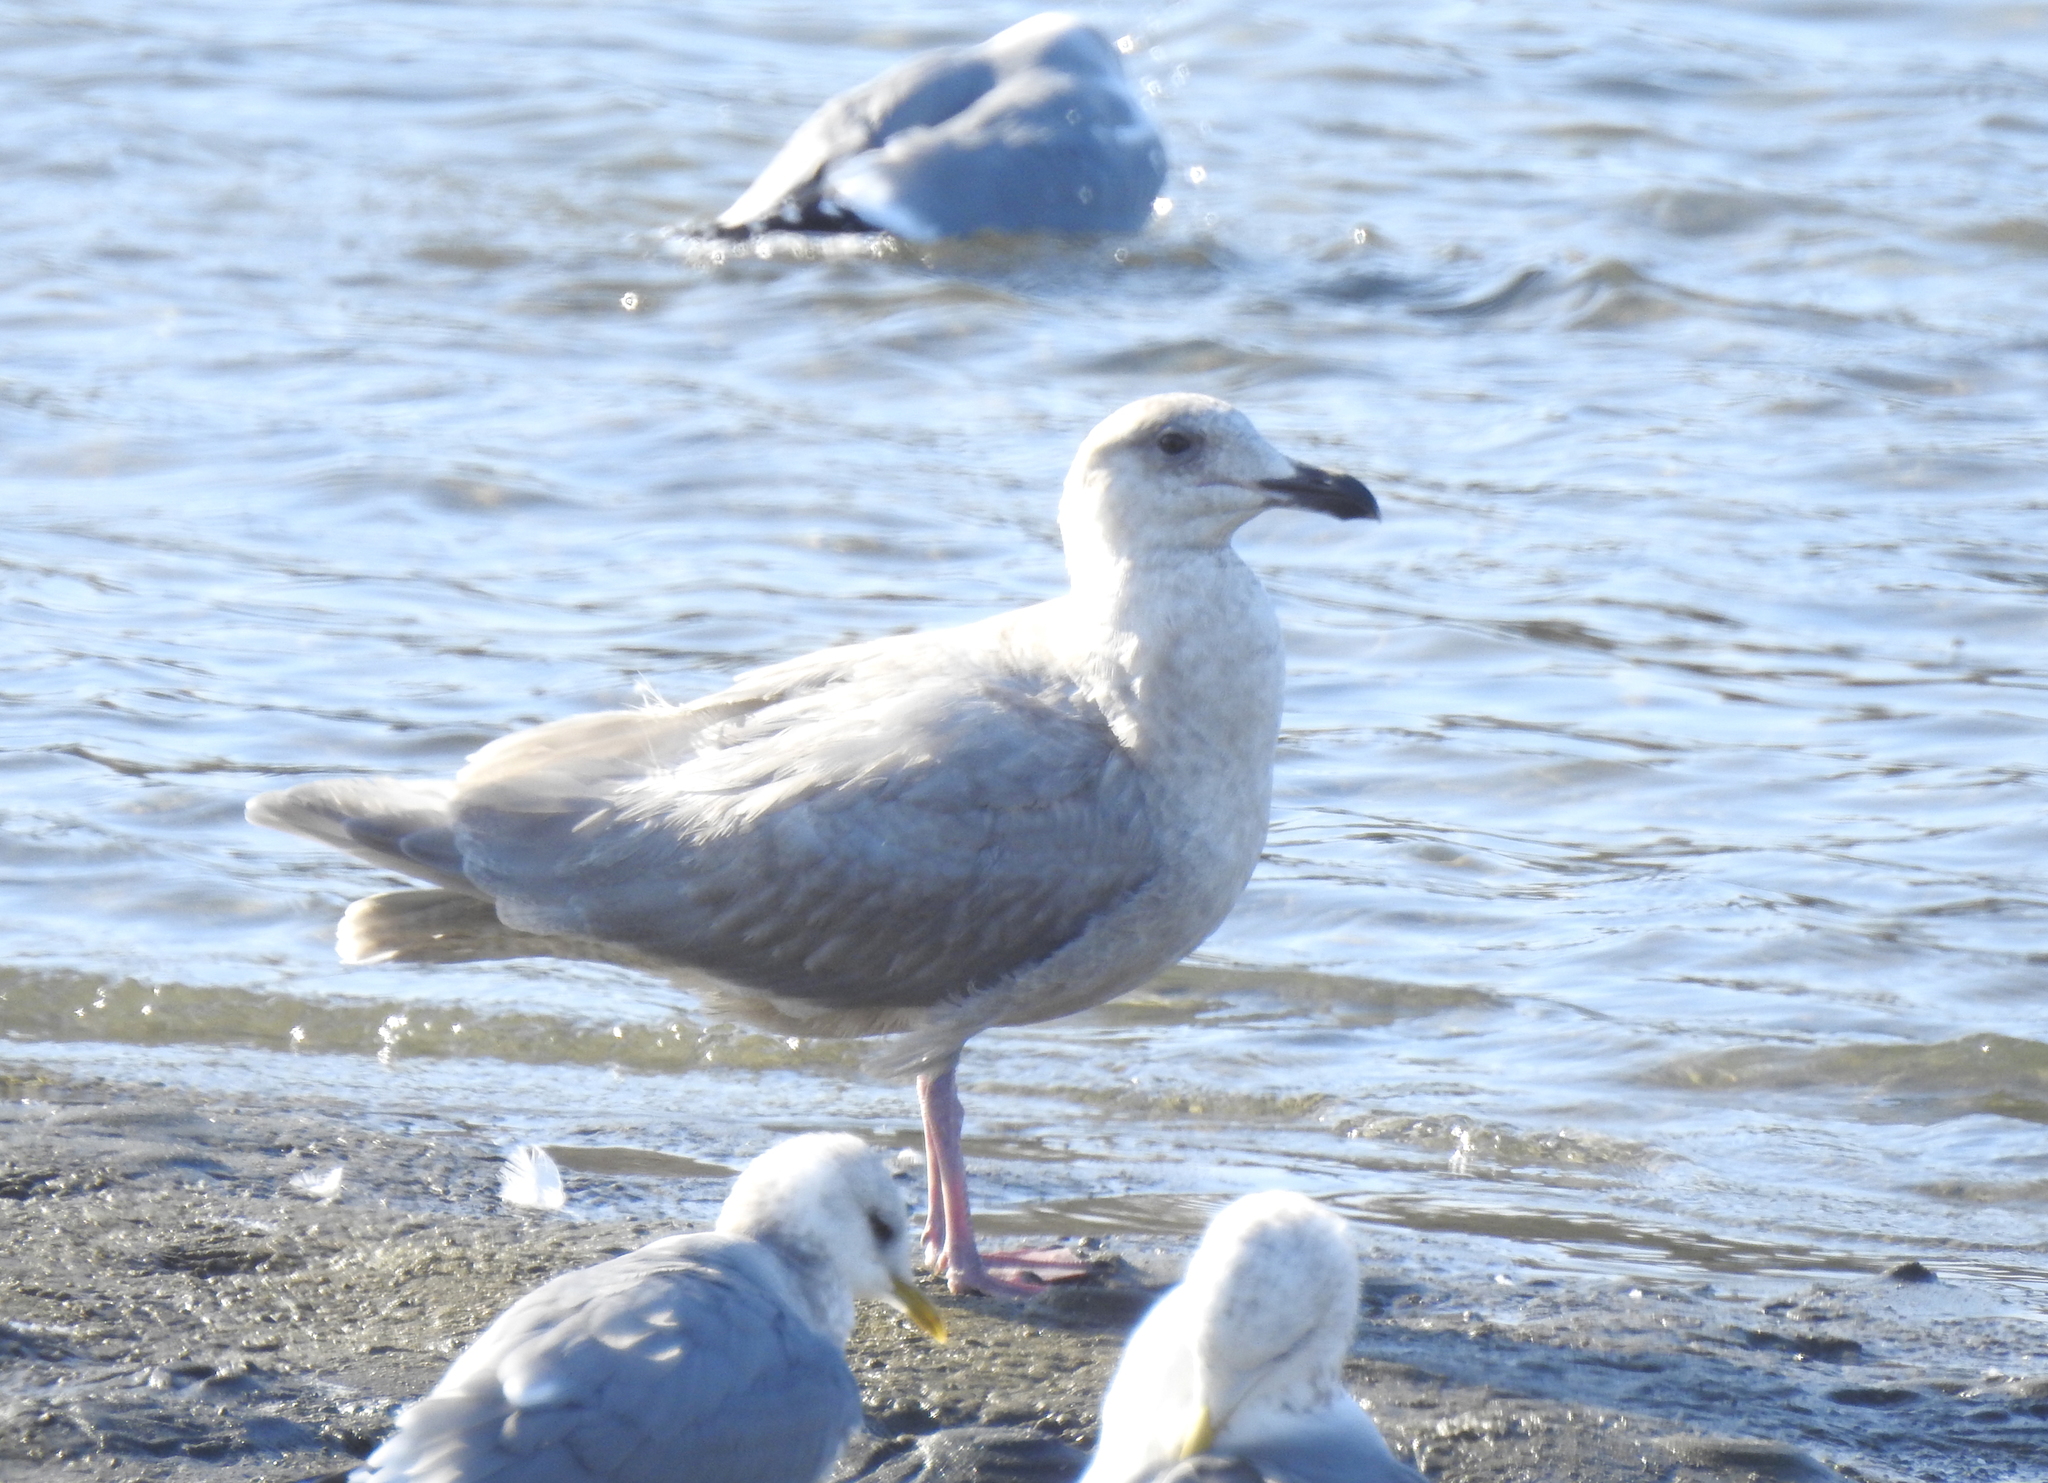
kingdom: Animalia
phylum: Chordata
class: Aves
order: Charadriiformes
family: Laridae
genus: Larus
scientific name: Larus glaucescens
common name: Glaucous-winged gull
